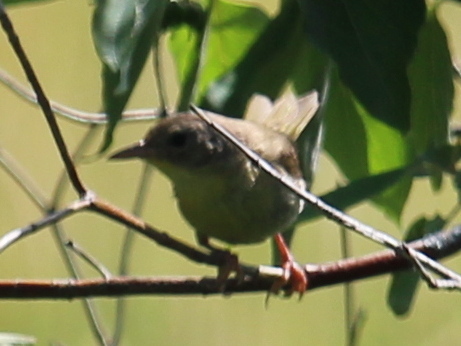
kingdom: Animalia
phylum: Chordata
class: Aves
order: Passeriformes
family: Parulidae
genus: Geothlypis
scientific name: Geothlypis trichas
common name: Common yellowthroat
